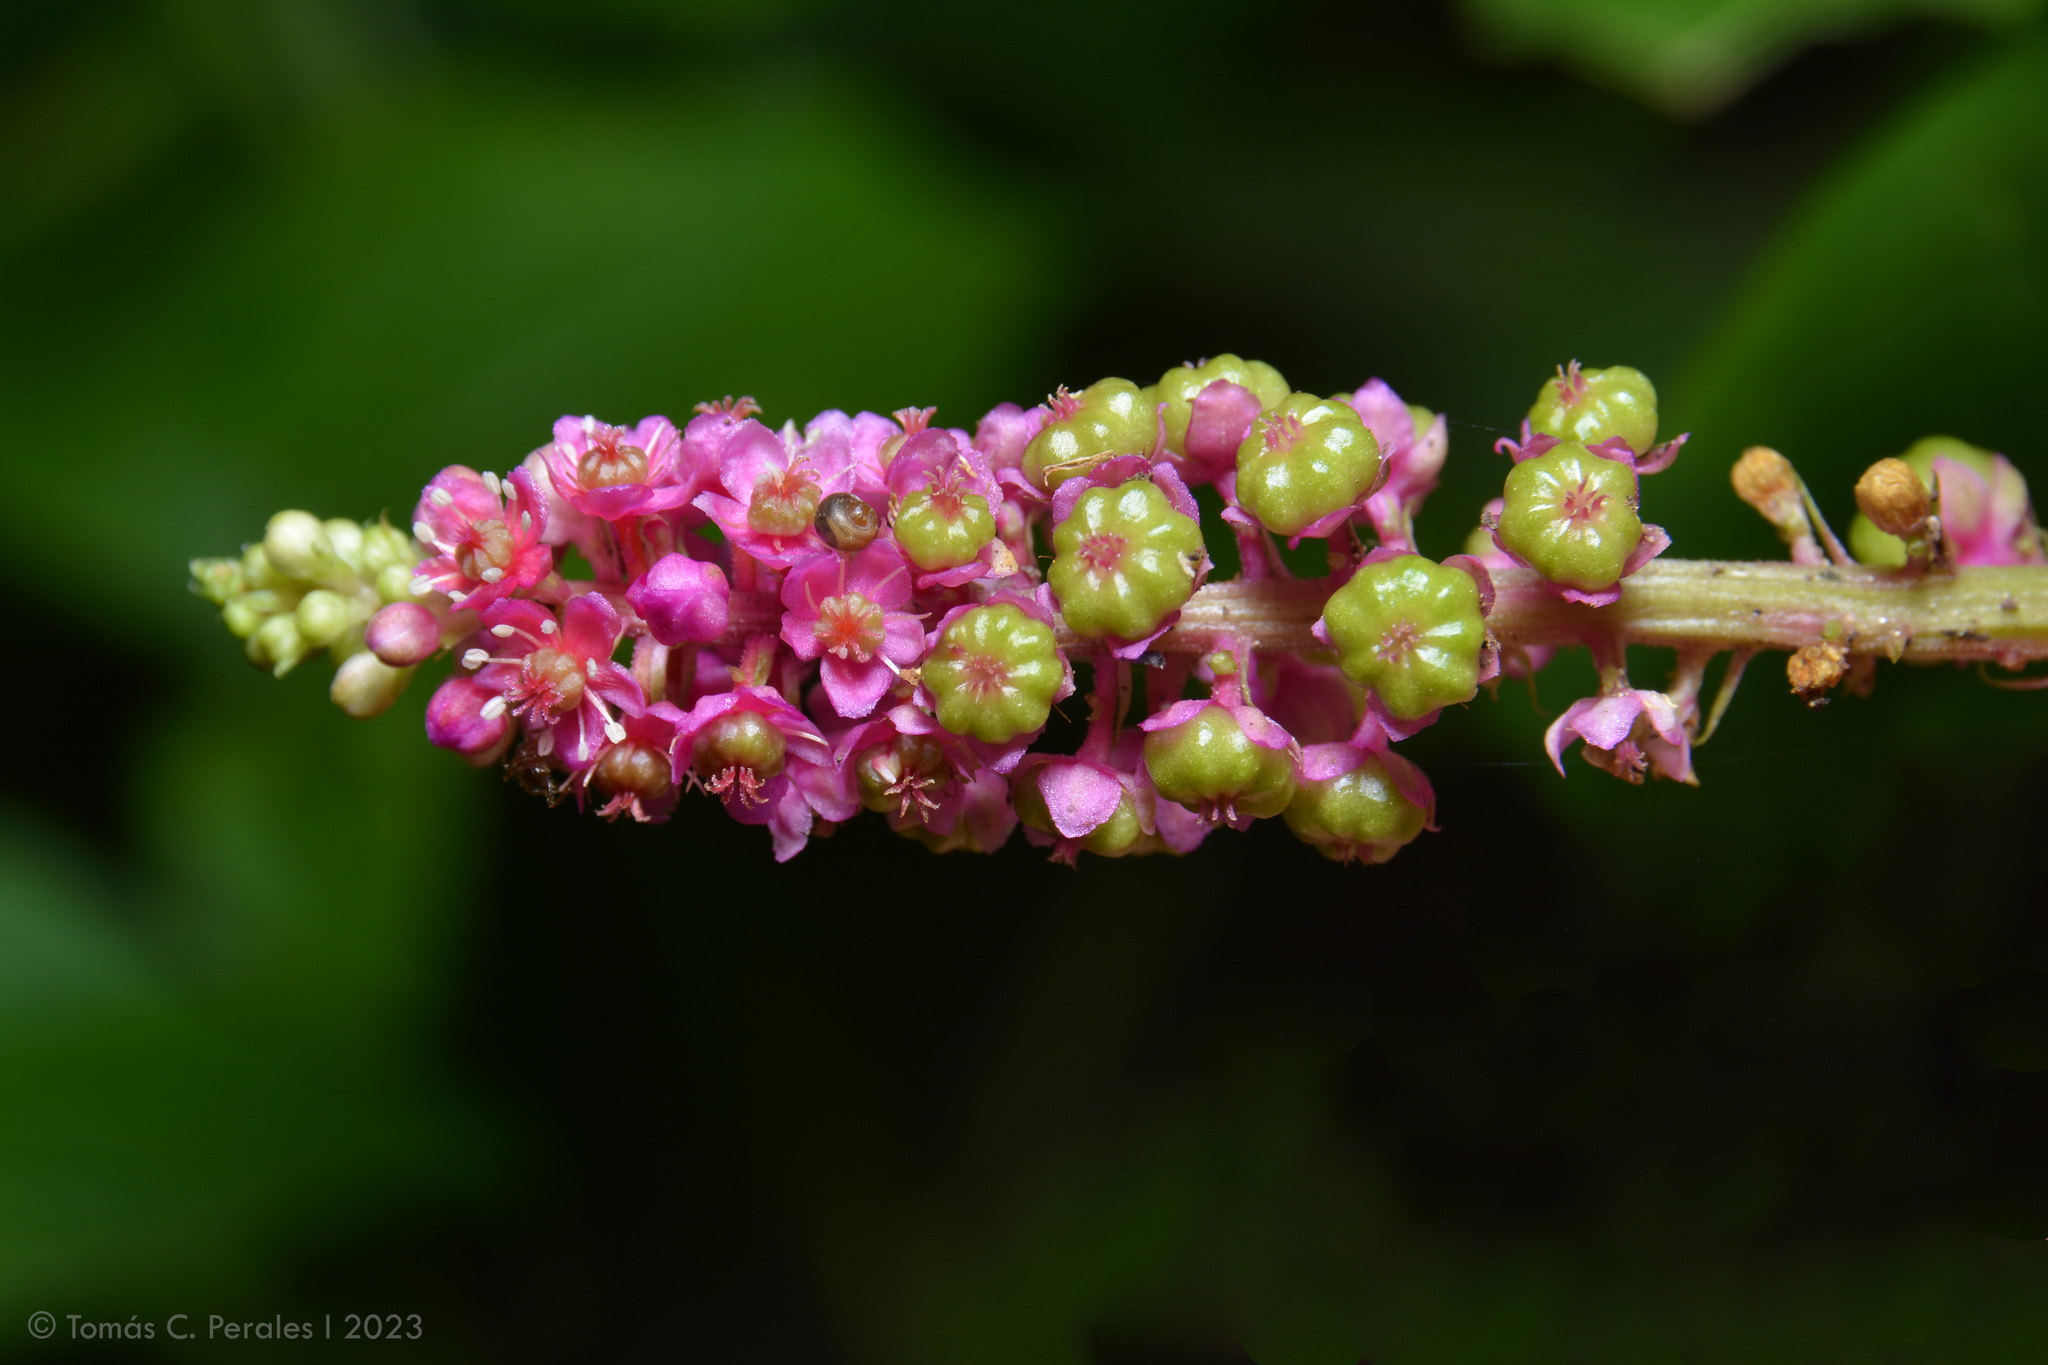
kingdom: Plantae
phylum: Tracheophyta
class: Magnoliopsida
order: Caryophyllales
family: Phytolaccaceae
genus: Phytolacca
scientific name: Phytolacca bogotensis
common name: Southern pokeweed
